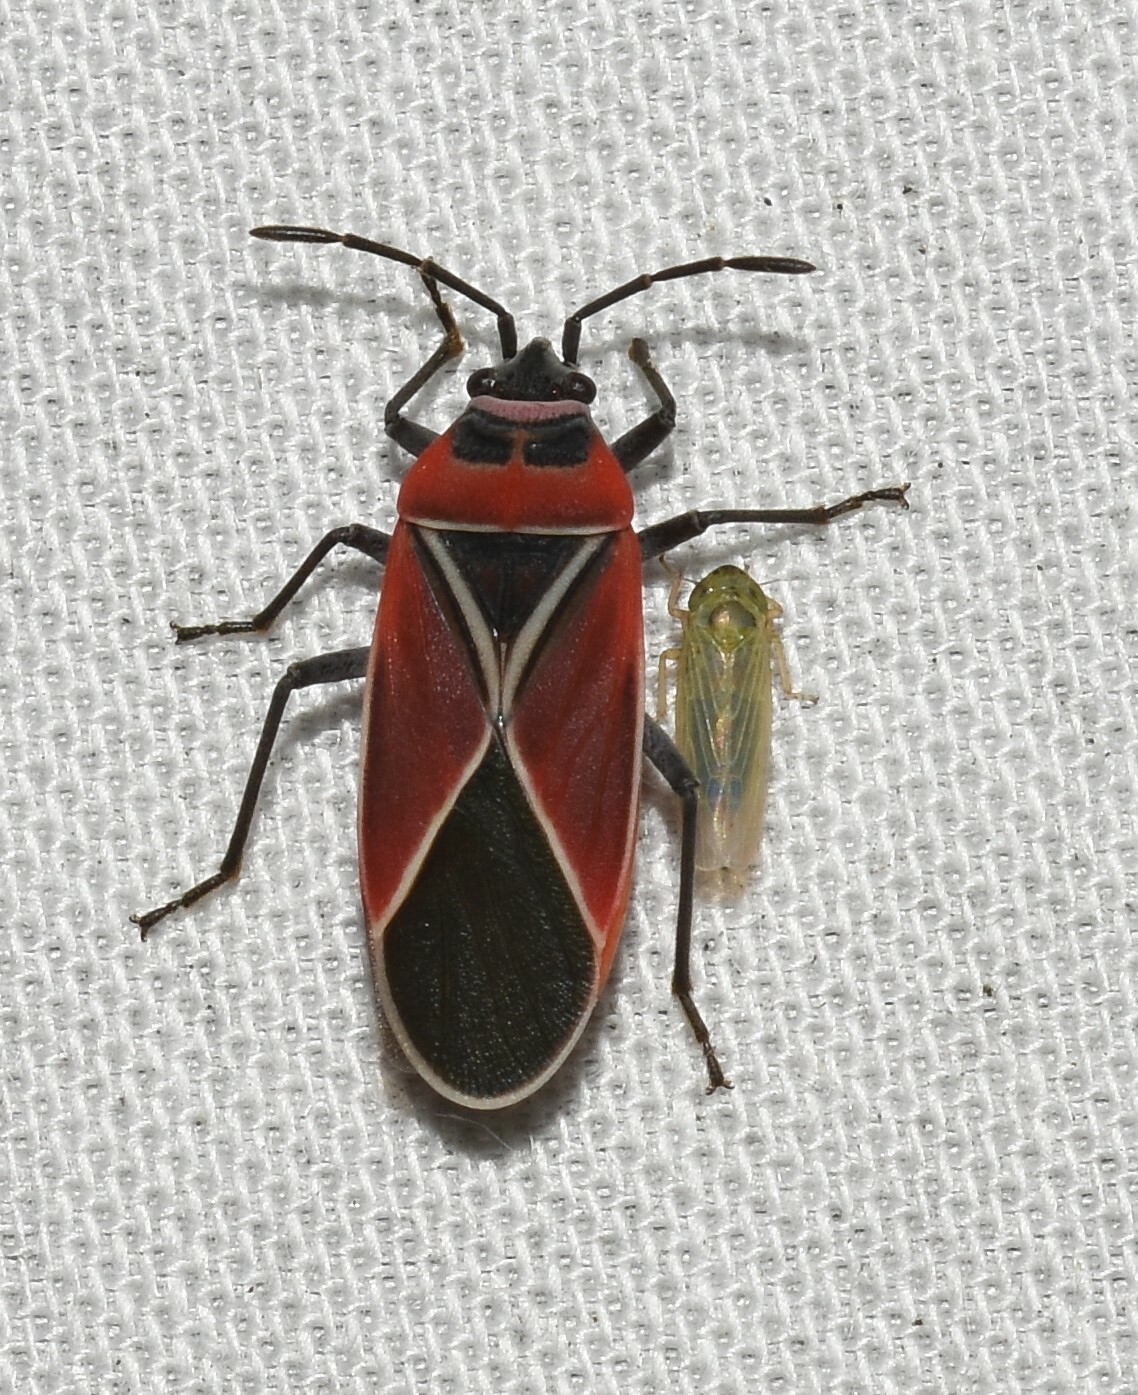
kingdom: Animalia
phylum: Arthropoda
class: Insecta
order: Hemiptera
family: Lygaeidae
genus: Neacoryphus
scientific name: Neacoryphus bicrucis
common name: Lygaeid bug
